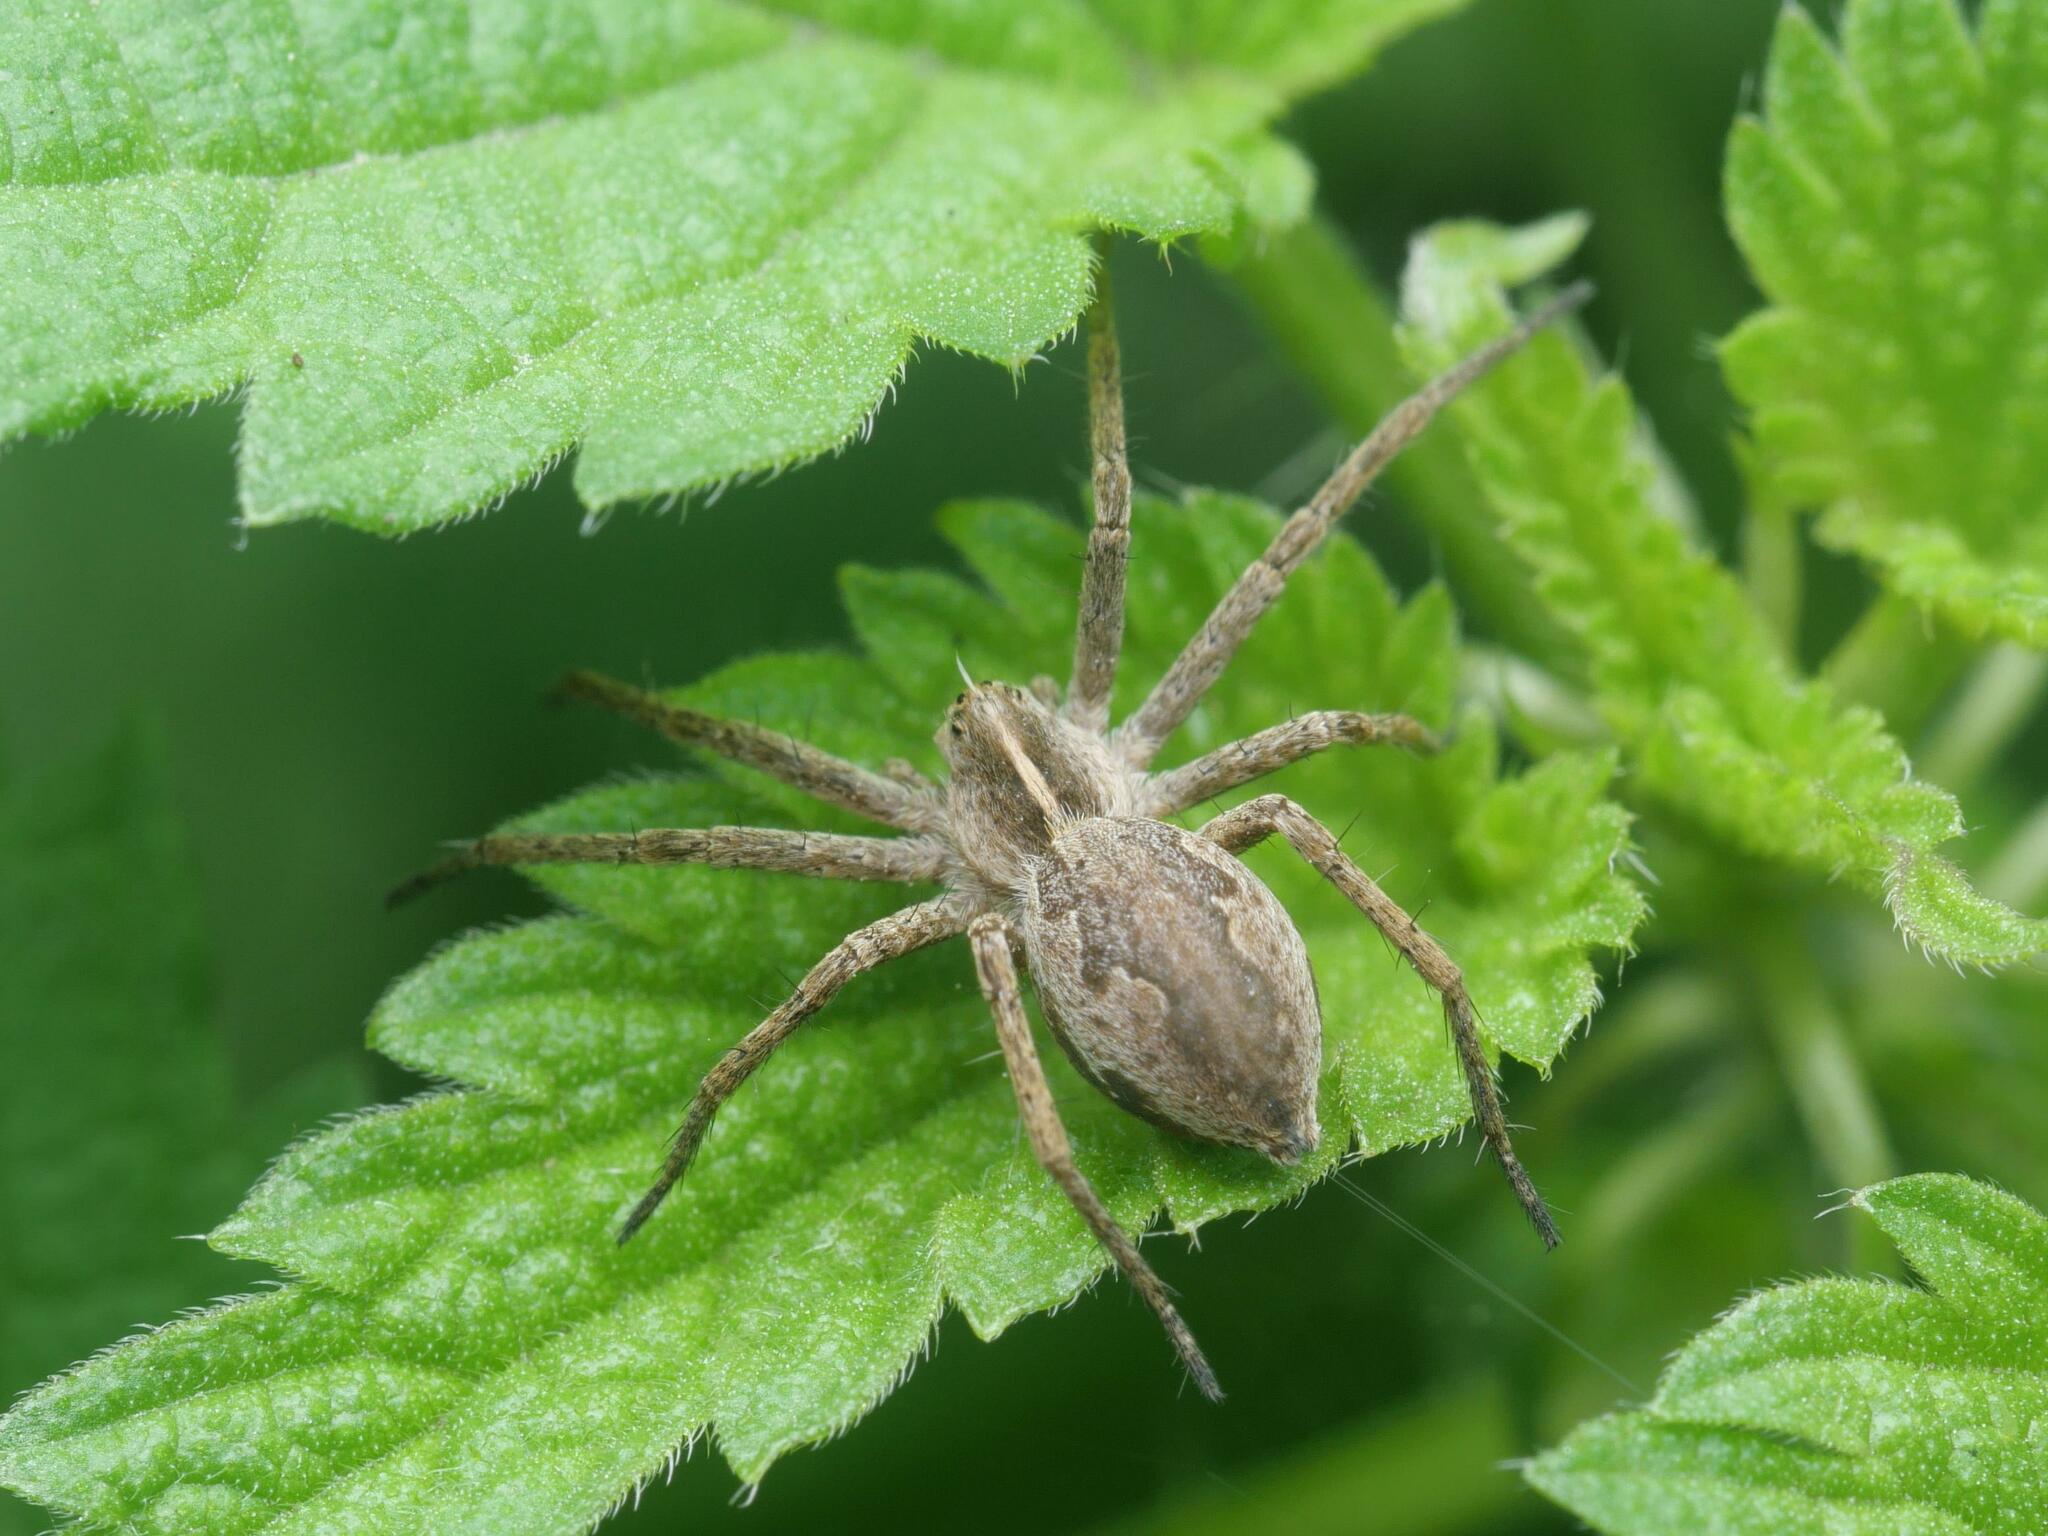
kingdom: Animalia
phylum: Arthropoda
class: Arachnida
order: Araneae
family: Pisauridae
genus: Pisaura
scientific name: Pisaura mirabilis
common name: Tent spider
